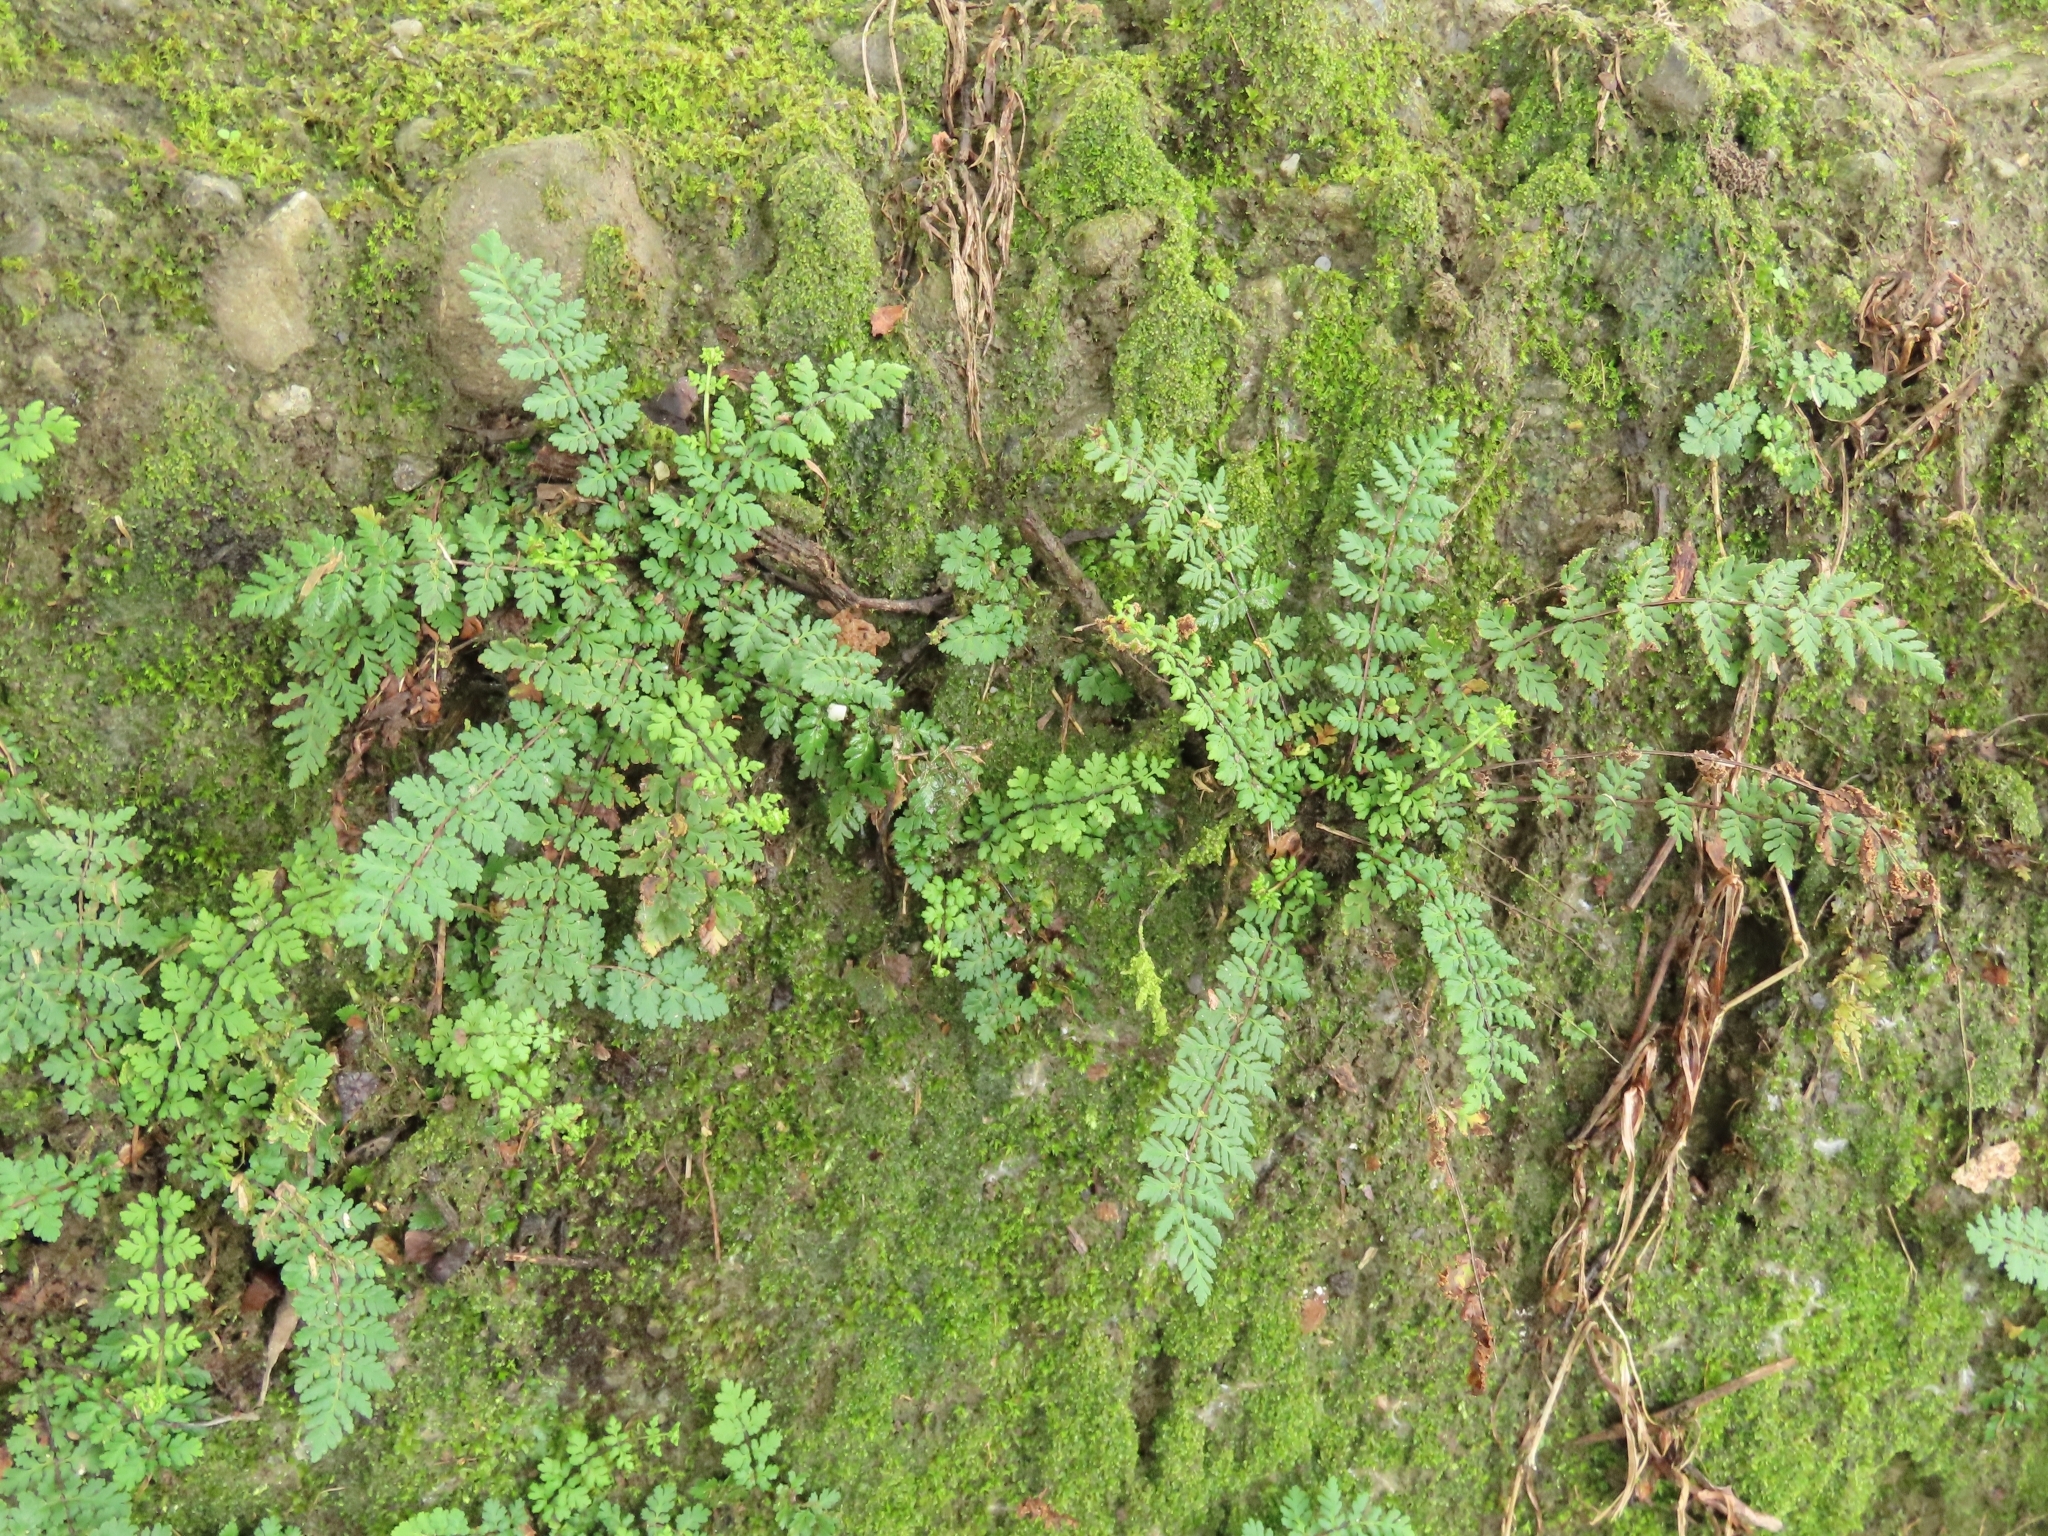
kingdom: Plantae
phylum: Tracheophyta
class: Polypodiopsida
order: Polypodiales
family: Pteridaceae
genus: Oeosporangium
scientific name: Oeosporangium chusanum
